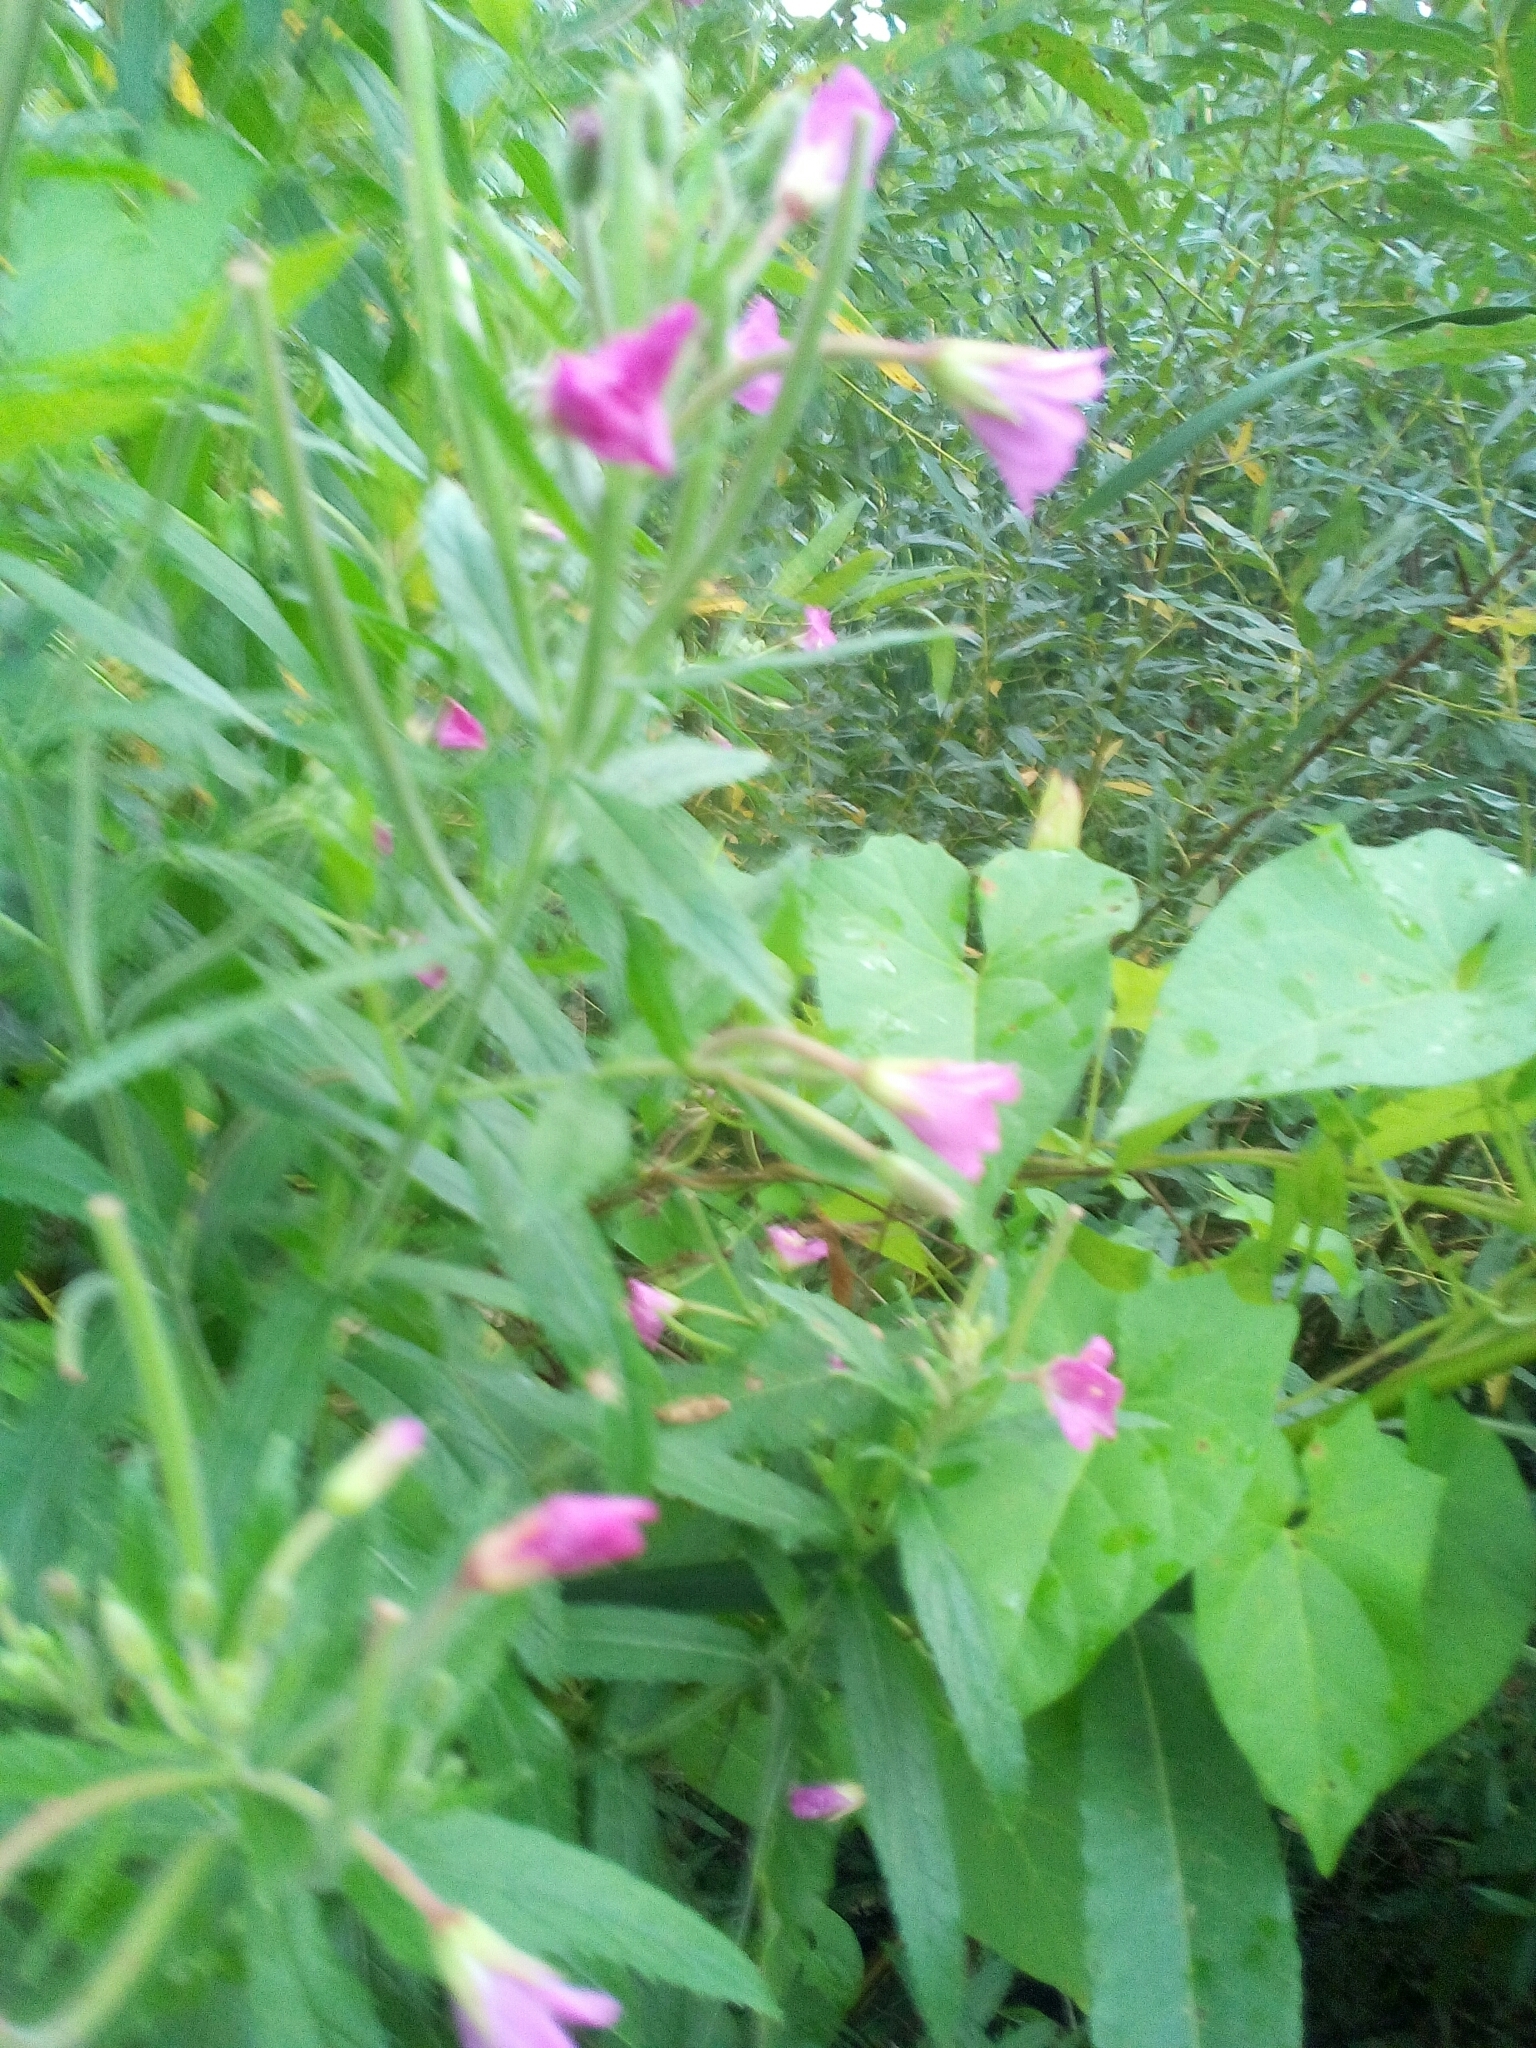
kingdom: Plantae
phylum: Tracheophyta
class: Magnoliopsida
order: Myrtales
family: Onagraceae
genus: Epilobium
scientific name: Epilobium hirsutum
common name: Great willowherb
